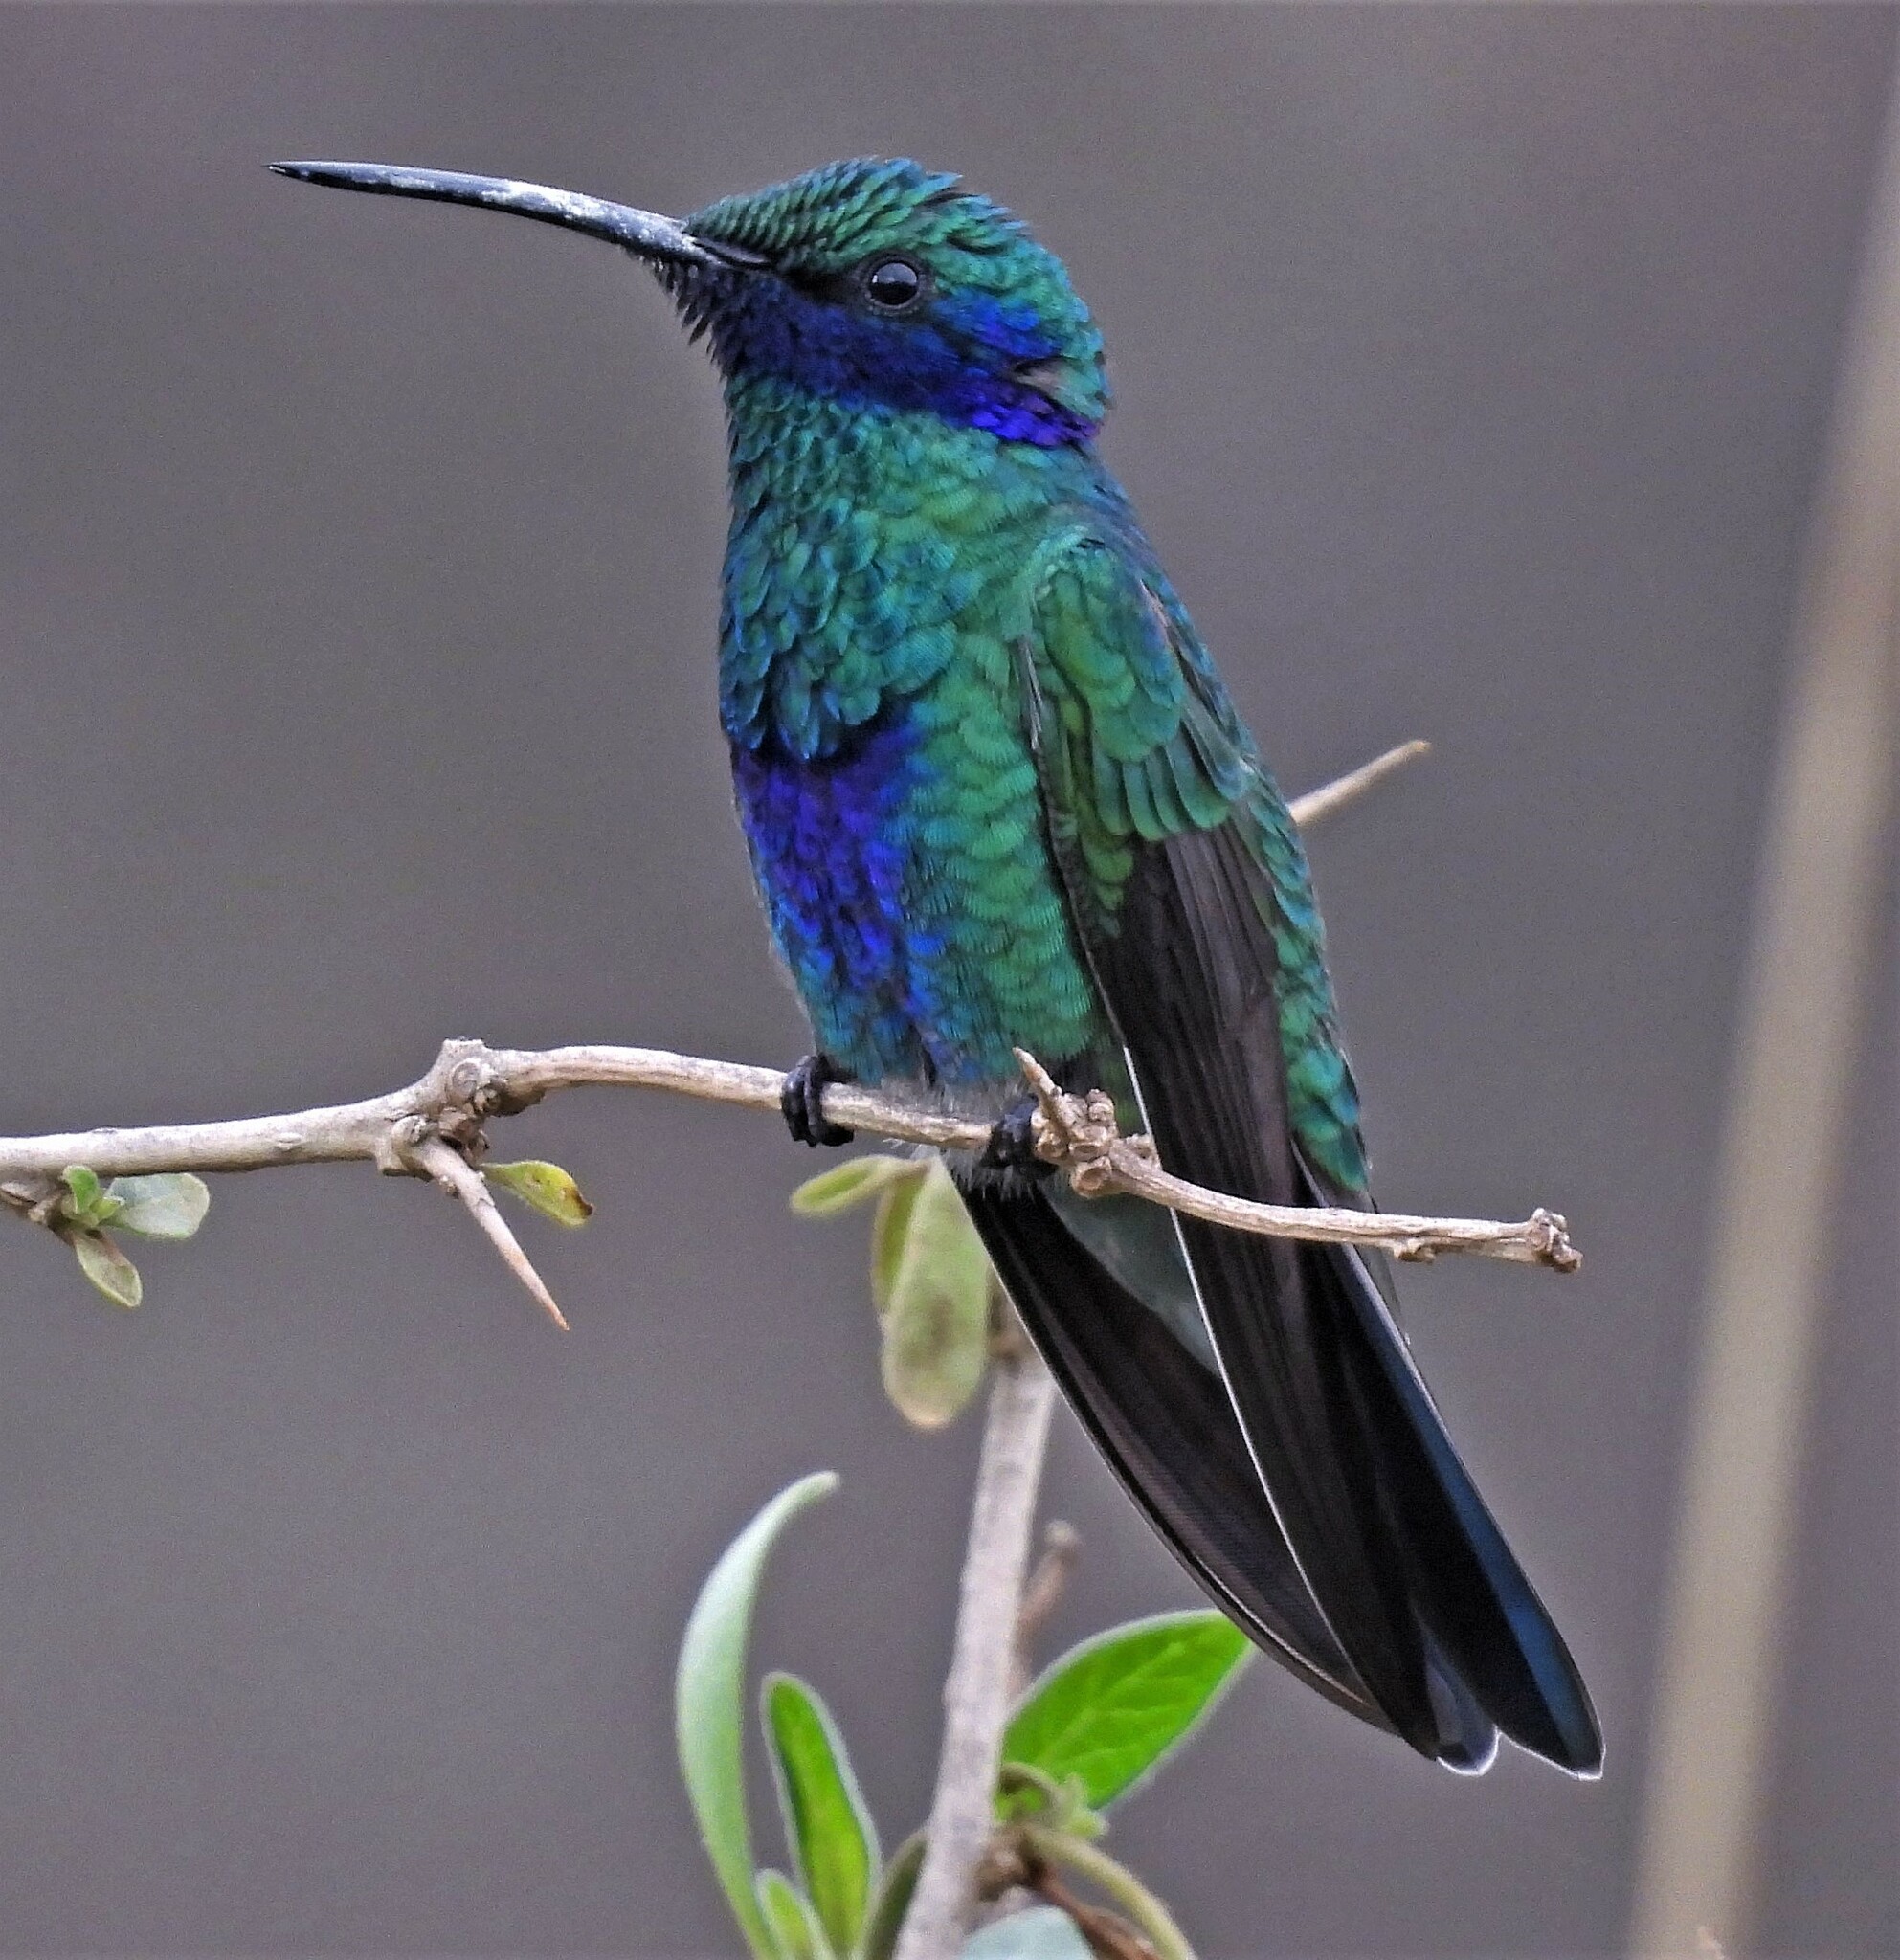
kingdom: Animalia
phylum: Chordata
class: Aves
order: Apodiformes
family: Trochilidae
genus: Colibri
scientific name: Colibri coruscans
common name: Sparkling violetear
